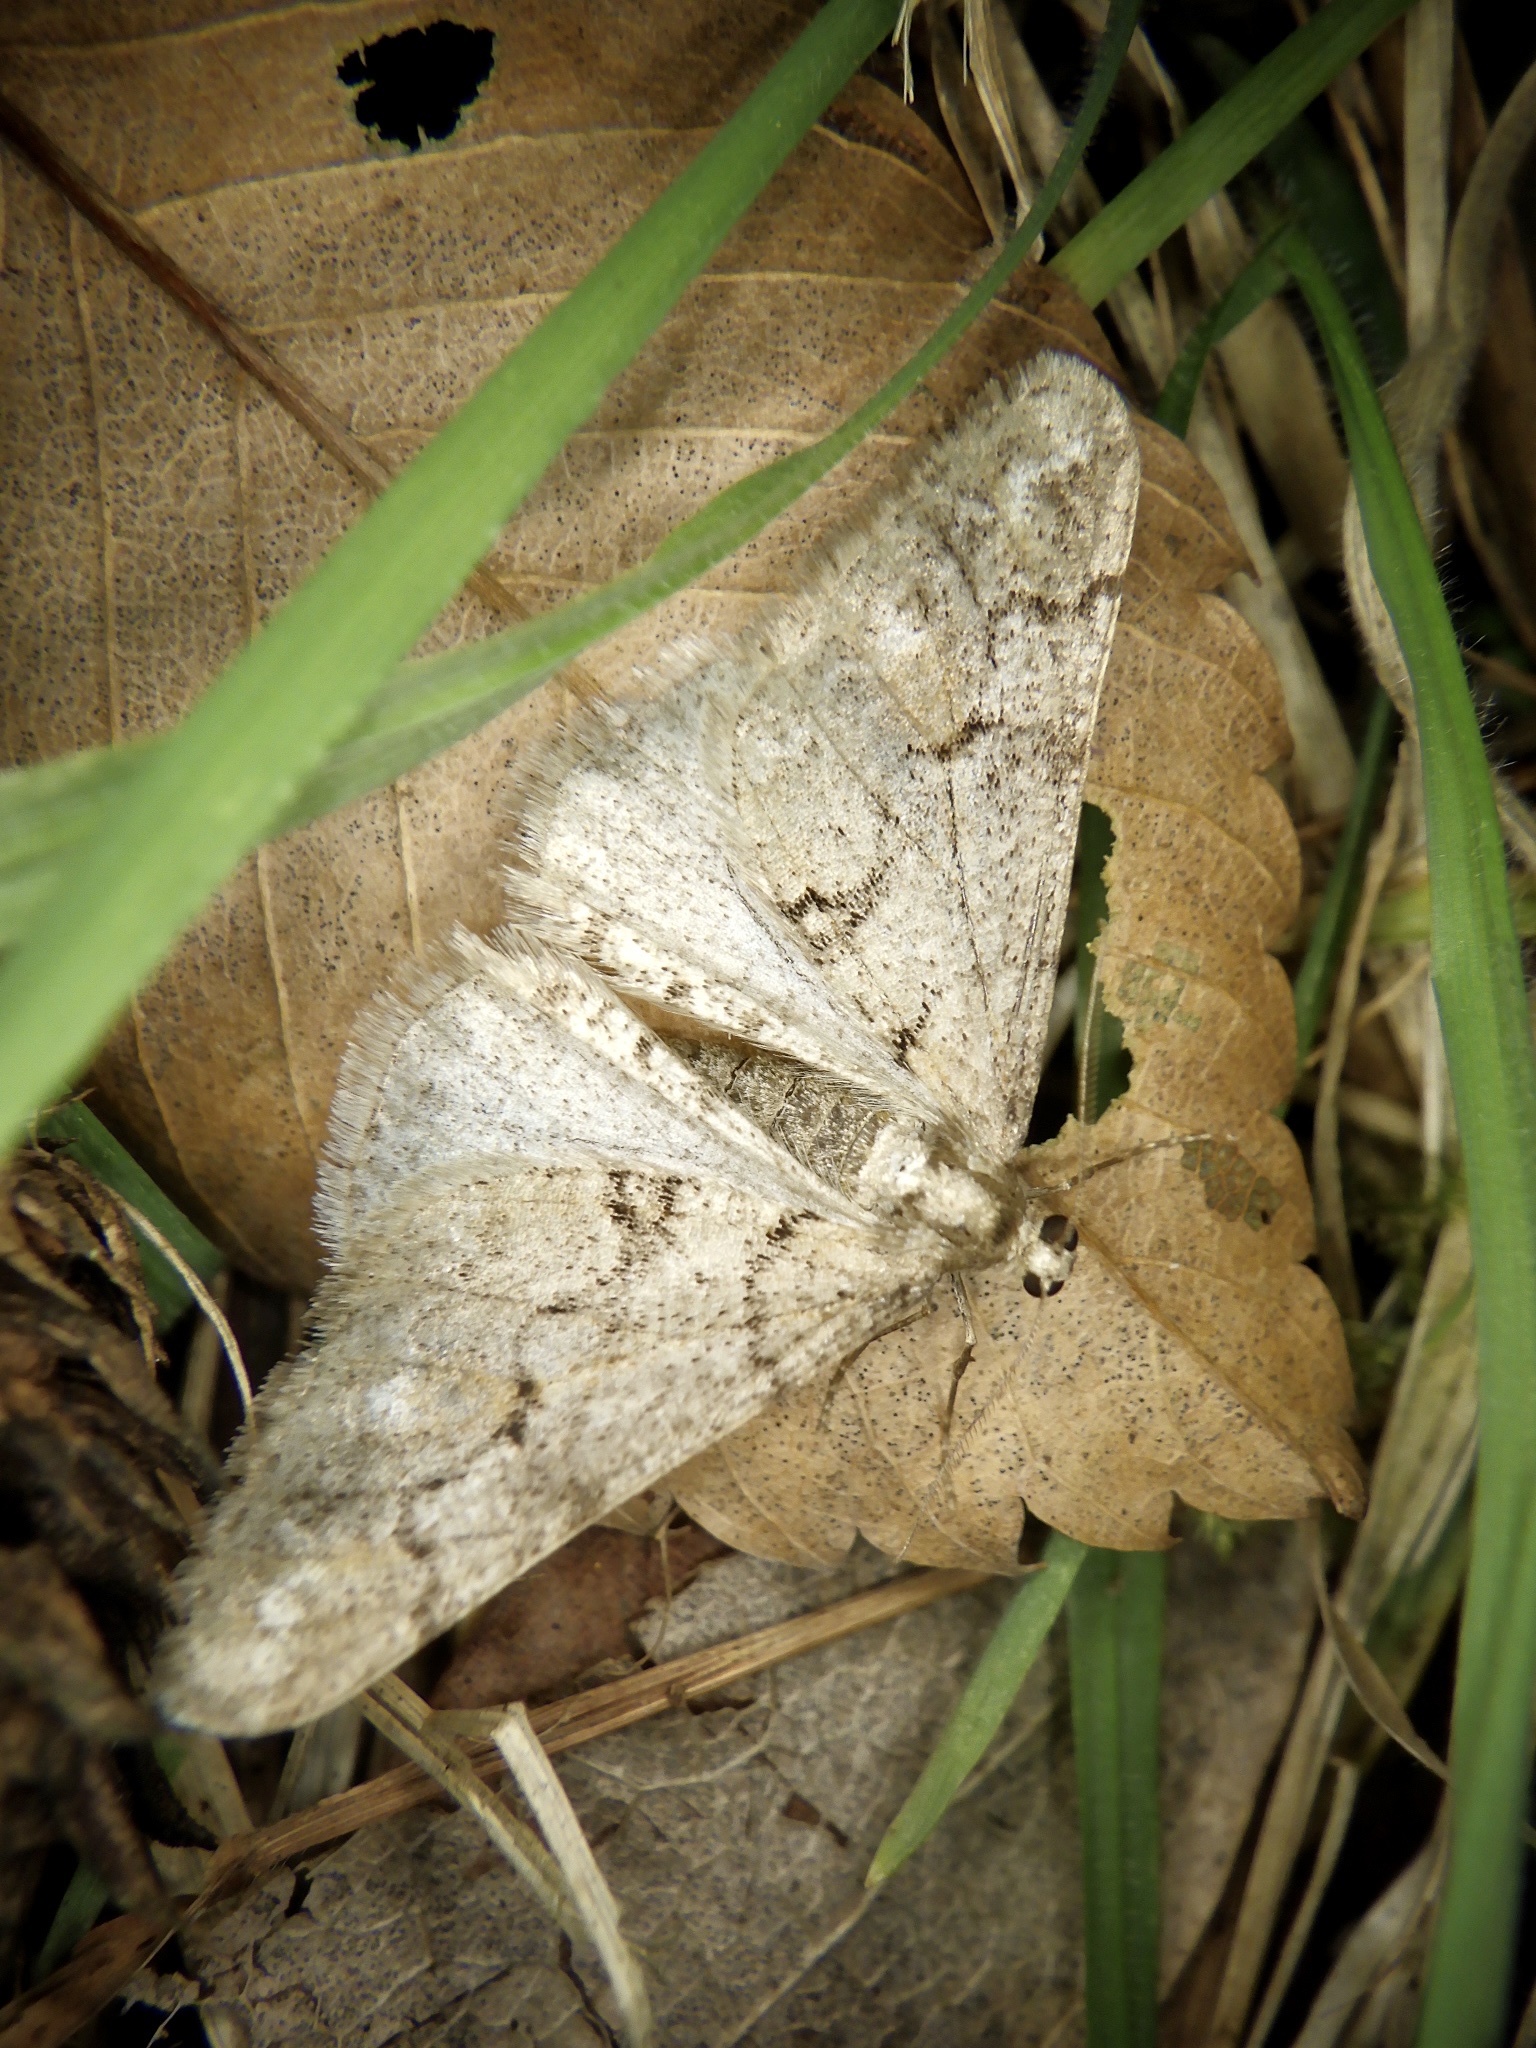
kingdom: Animalia
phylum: Arthropoda
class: Insecta
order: Lepidoptera
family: Geometridae
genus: Agriopis
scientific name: Agriopis dira
